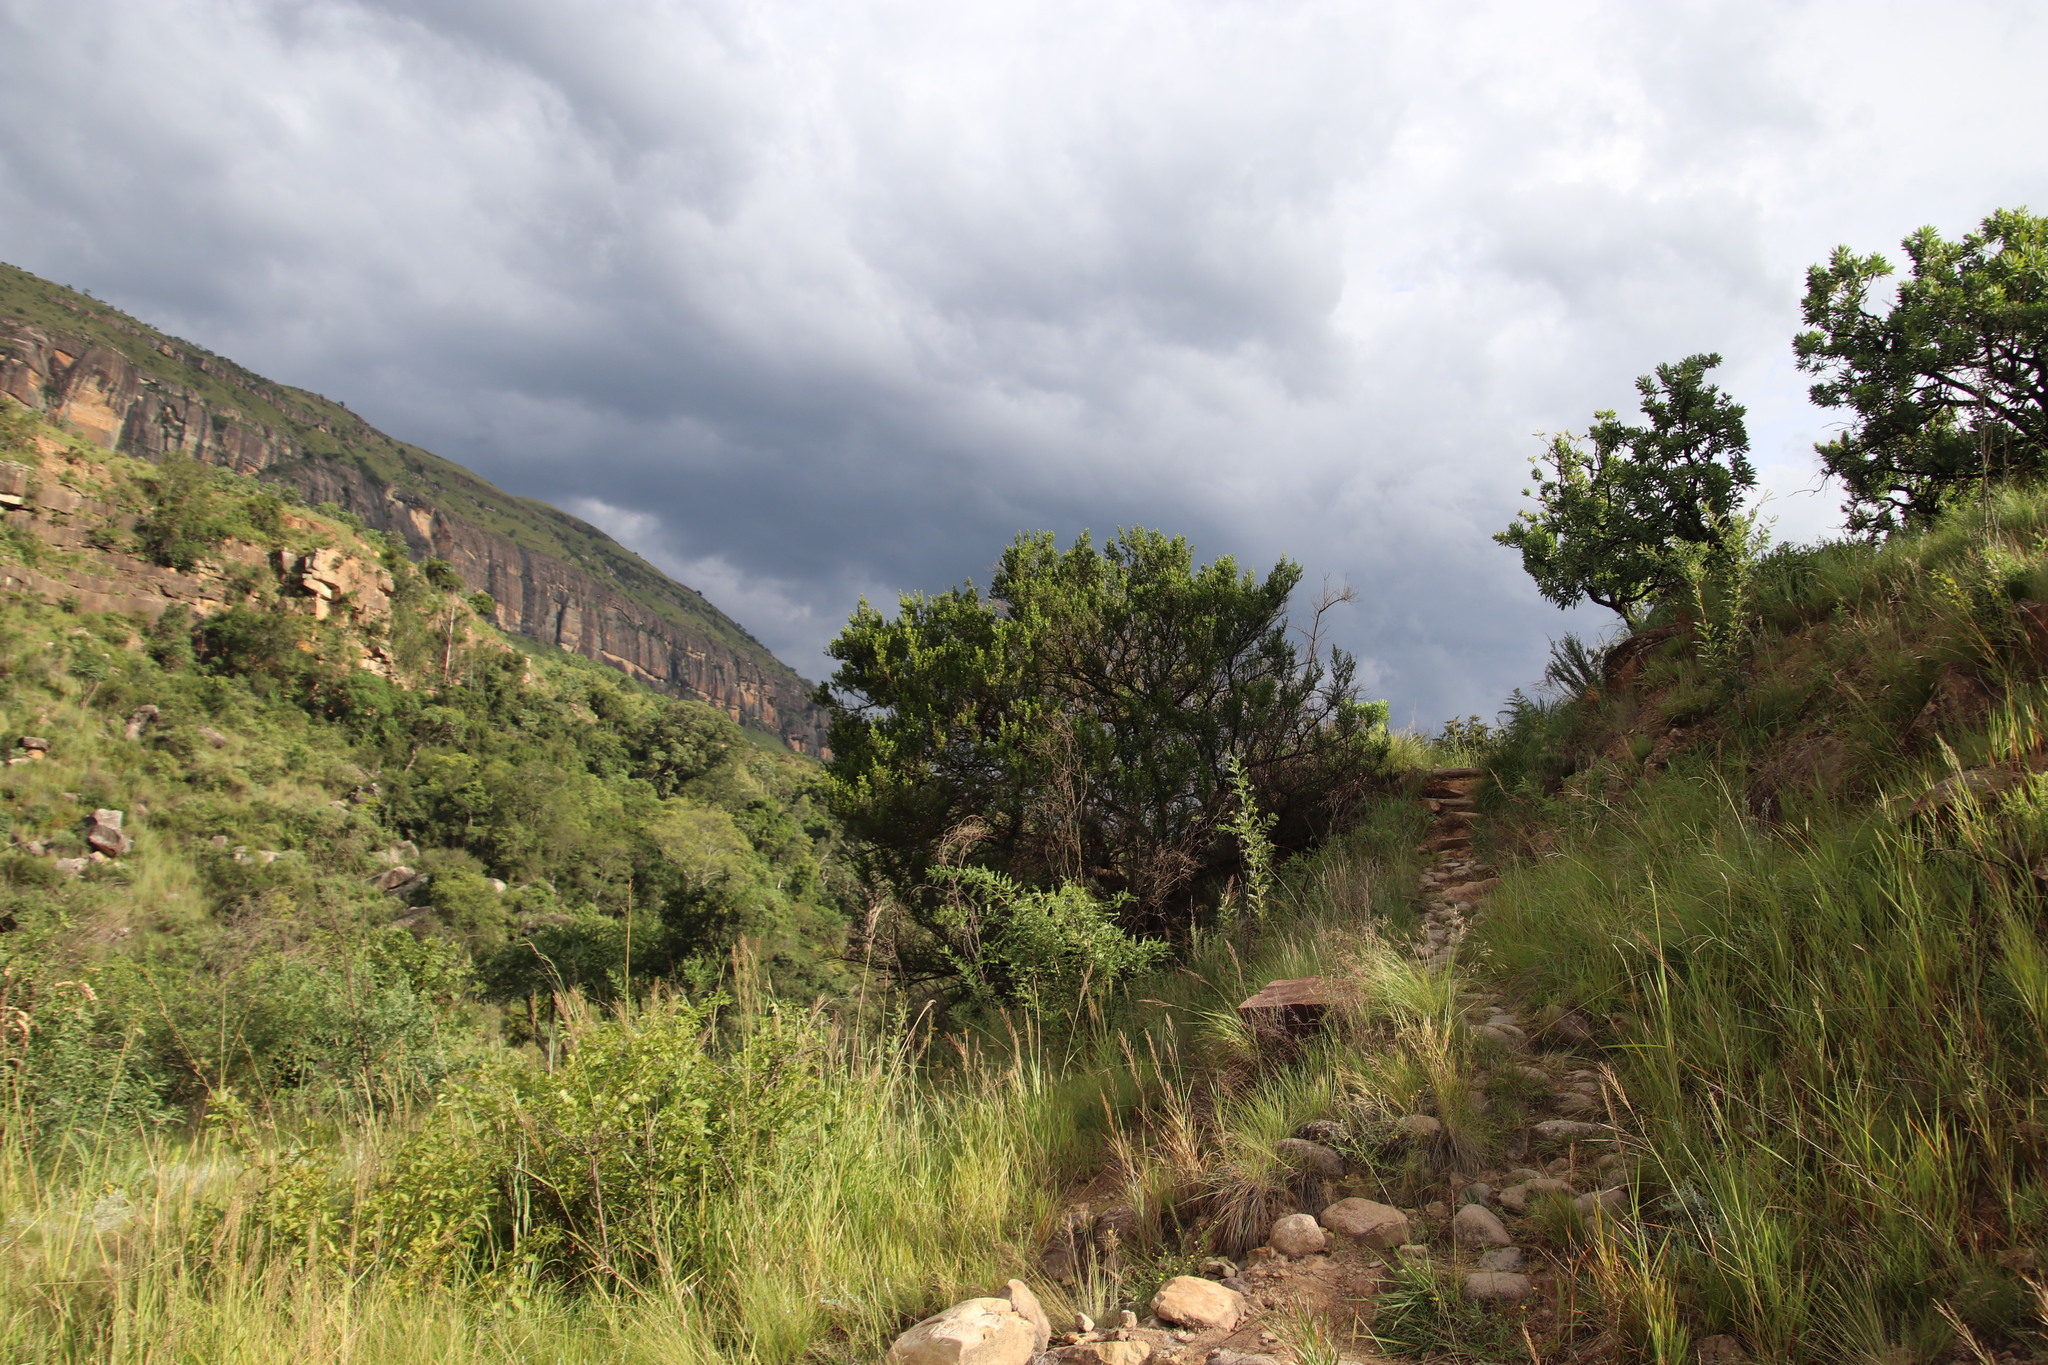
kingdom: Plantae
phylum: Tracheophyta
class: Magnoliopsida
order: Sapindales
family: Anacardiaceae
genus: Searsia
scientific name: Searsia lucida
